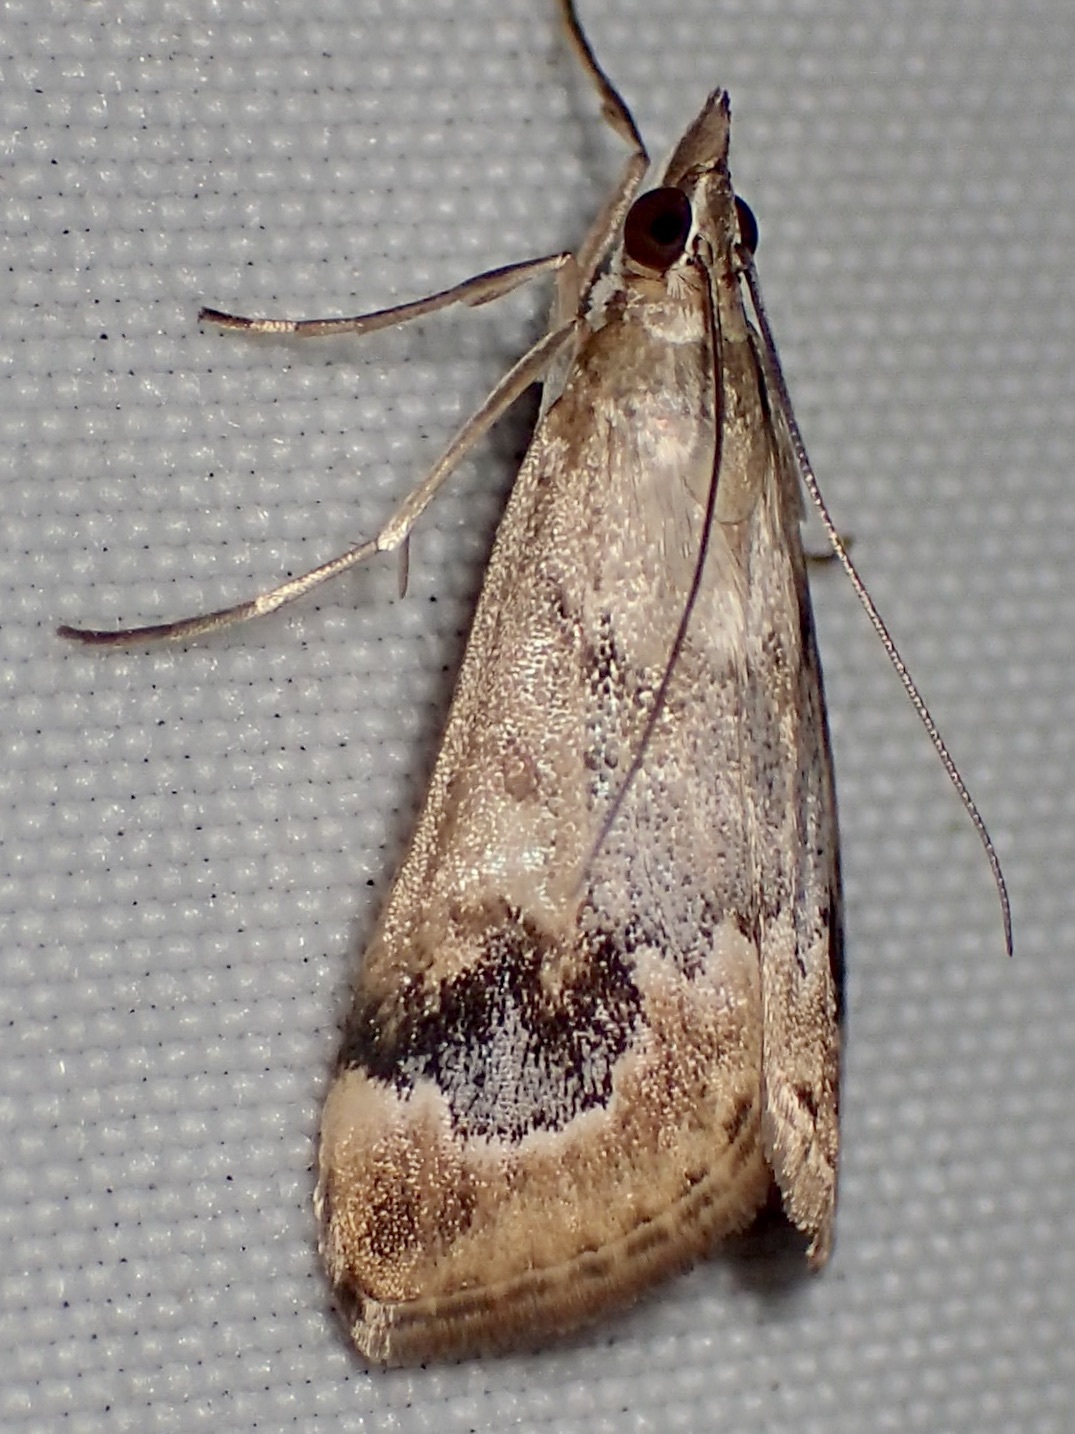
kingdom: Animalia
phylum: Arthropoda
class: Insecta
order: Lepidoptera
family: Crambidae
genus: Loxostege
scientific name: Loxostege typhonalis
